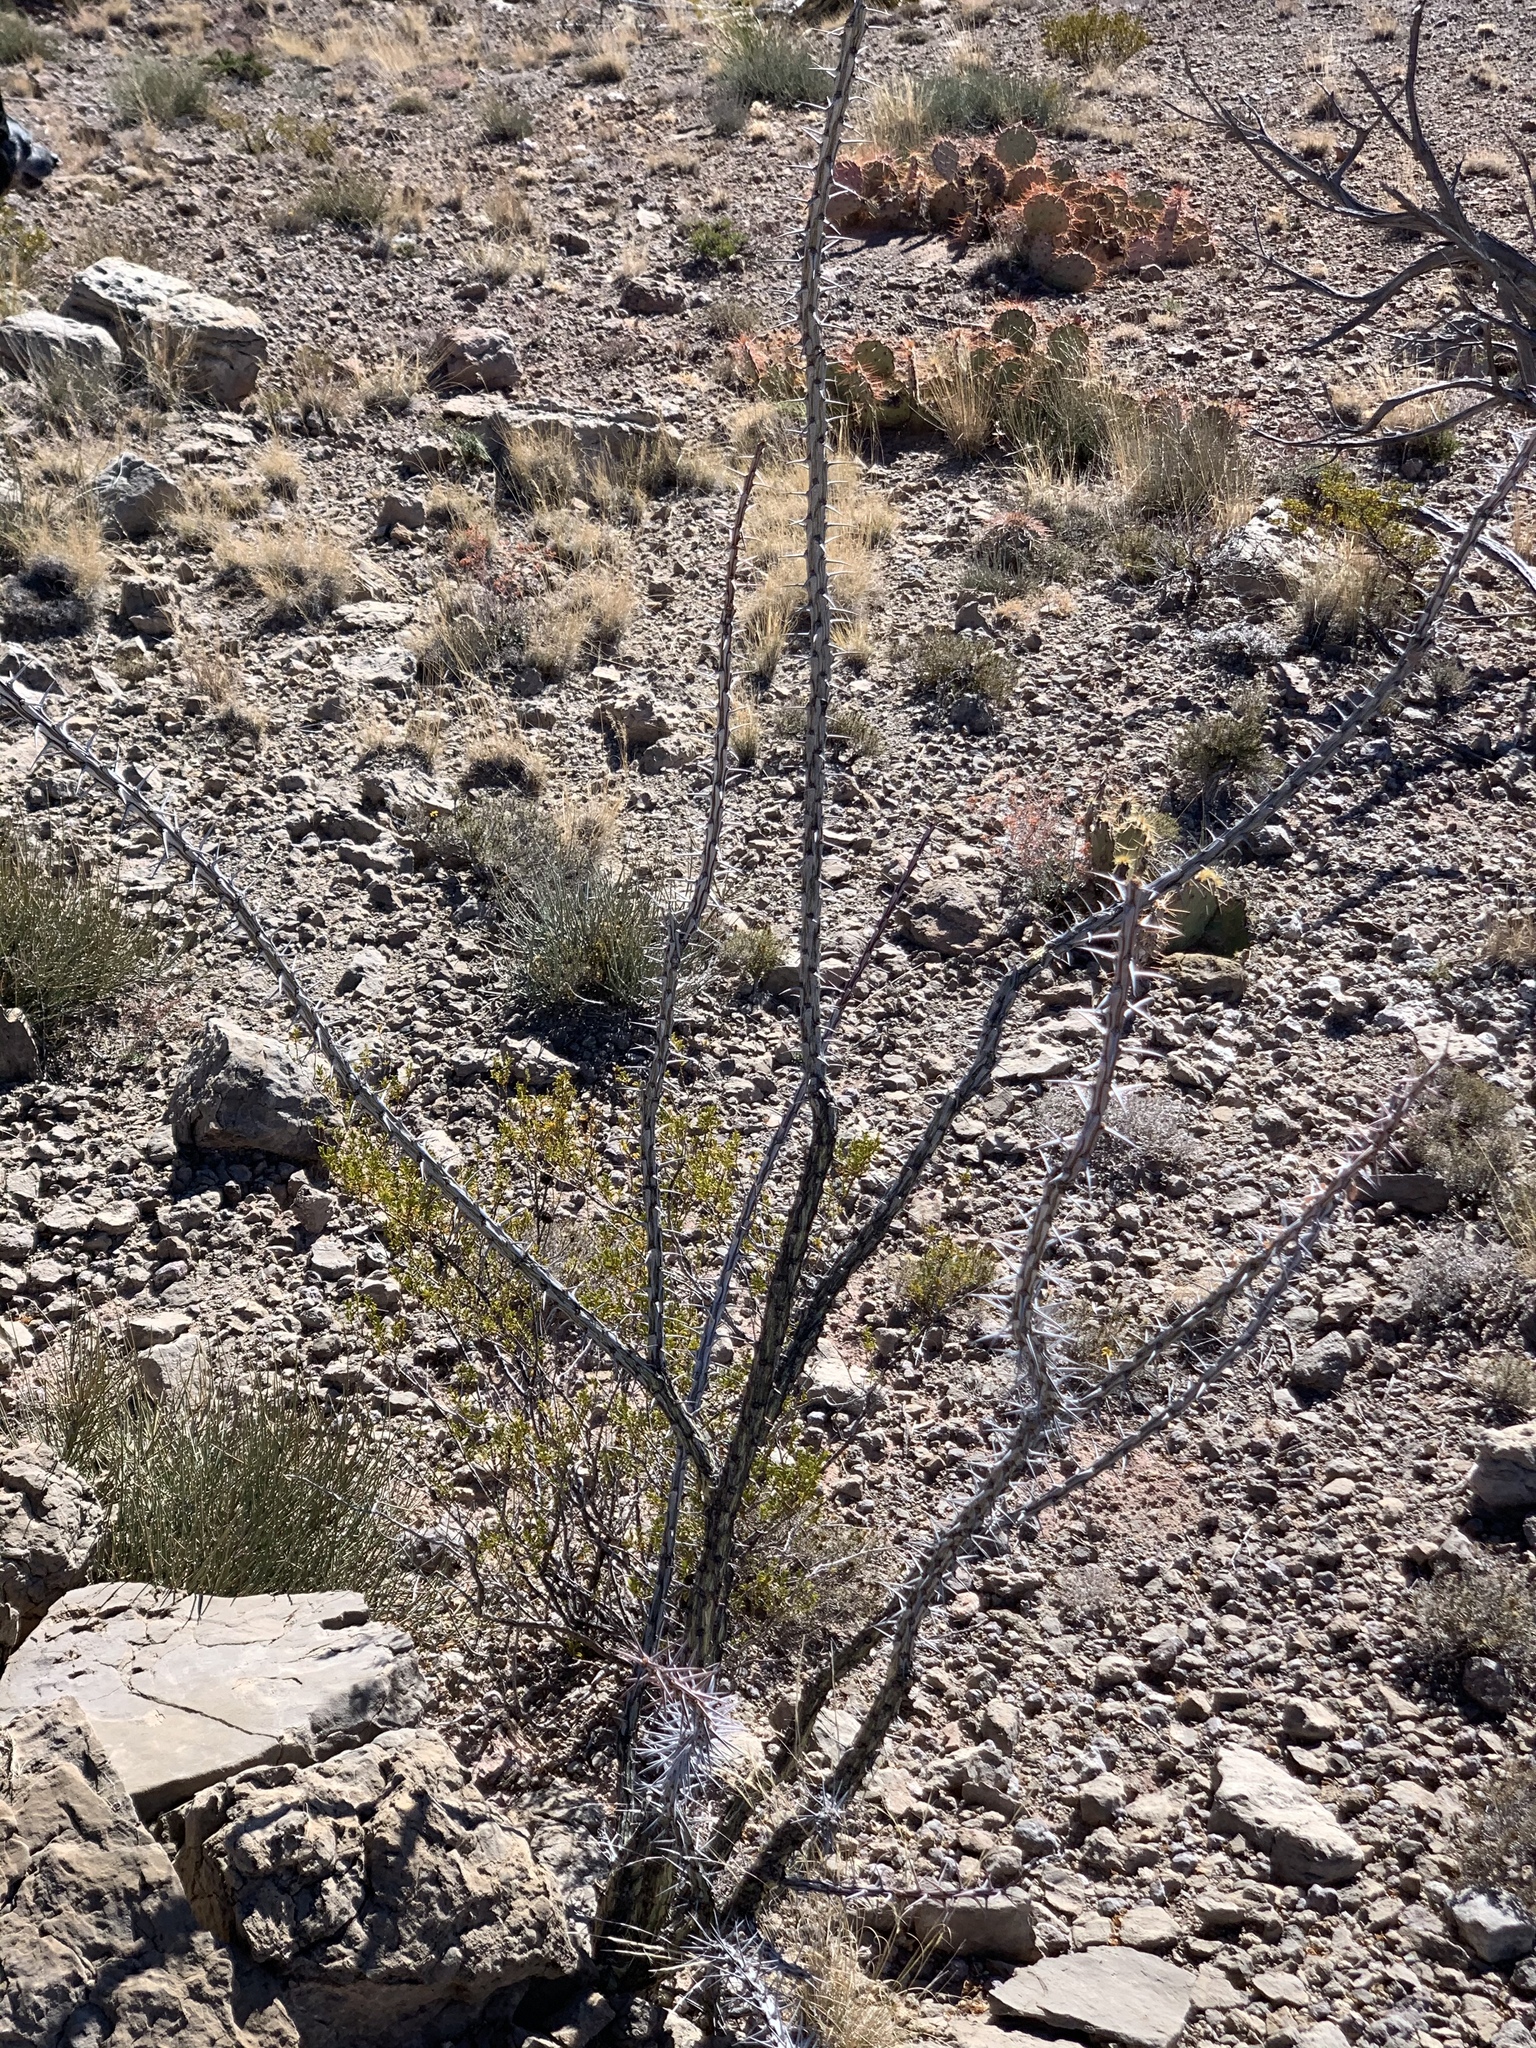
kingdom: Plantae
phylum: Tracheophyta
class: Magnoliopsida
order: Ericales
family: Fouquieriaceae
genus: Fouquieria
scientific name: Fouquieria splendens
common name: Vine-cactus
